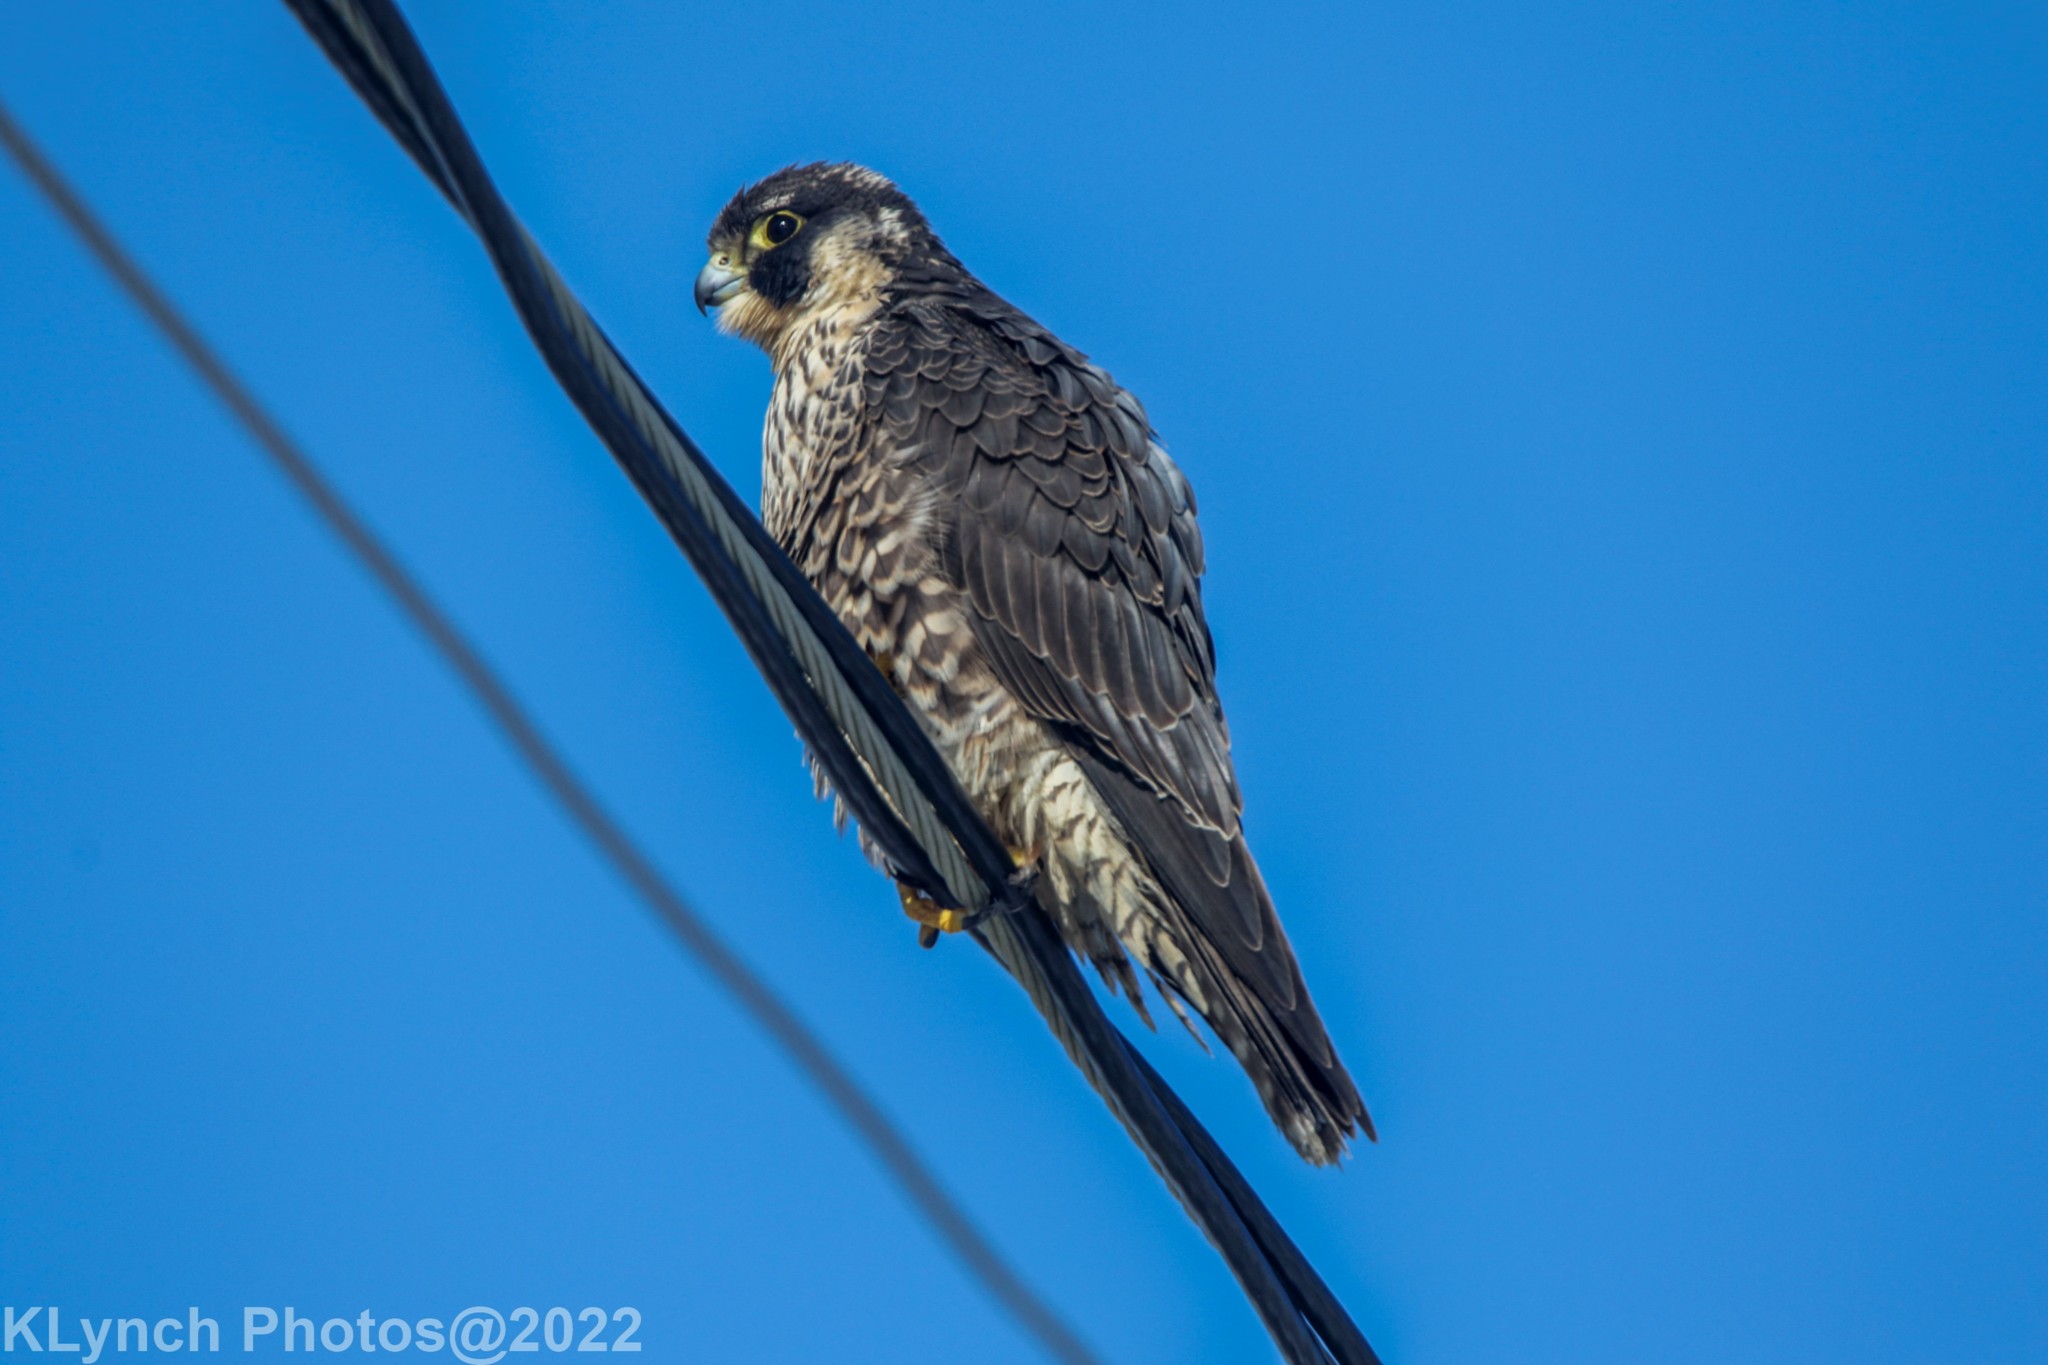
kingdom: Animalia
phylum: Chordata
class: Aves
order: Falconiformes
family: Falconidae
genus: Falco
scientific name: Falco peregrinus
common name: Peregrine falcon
